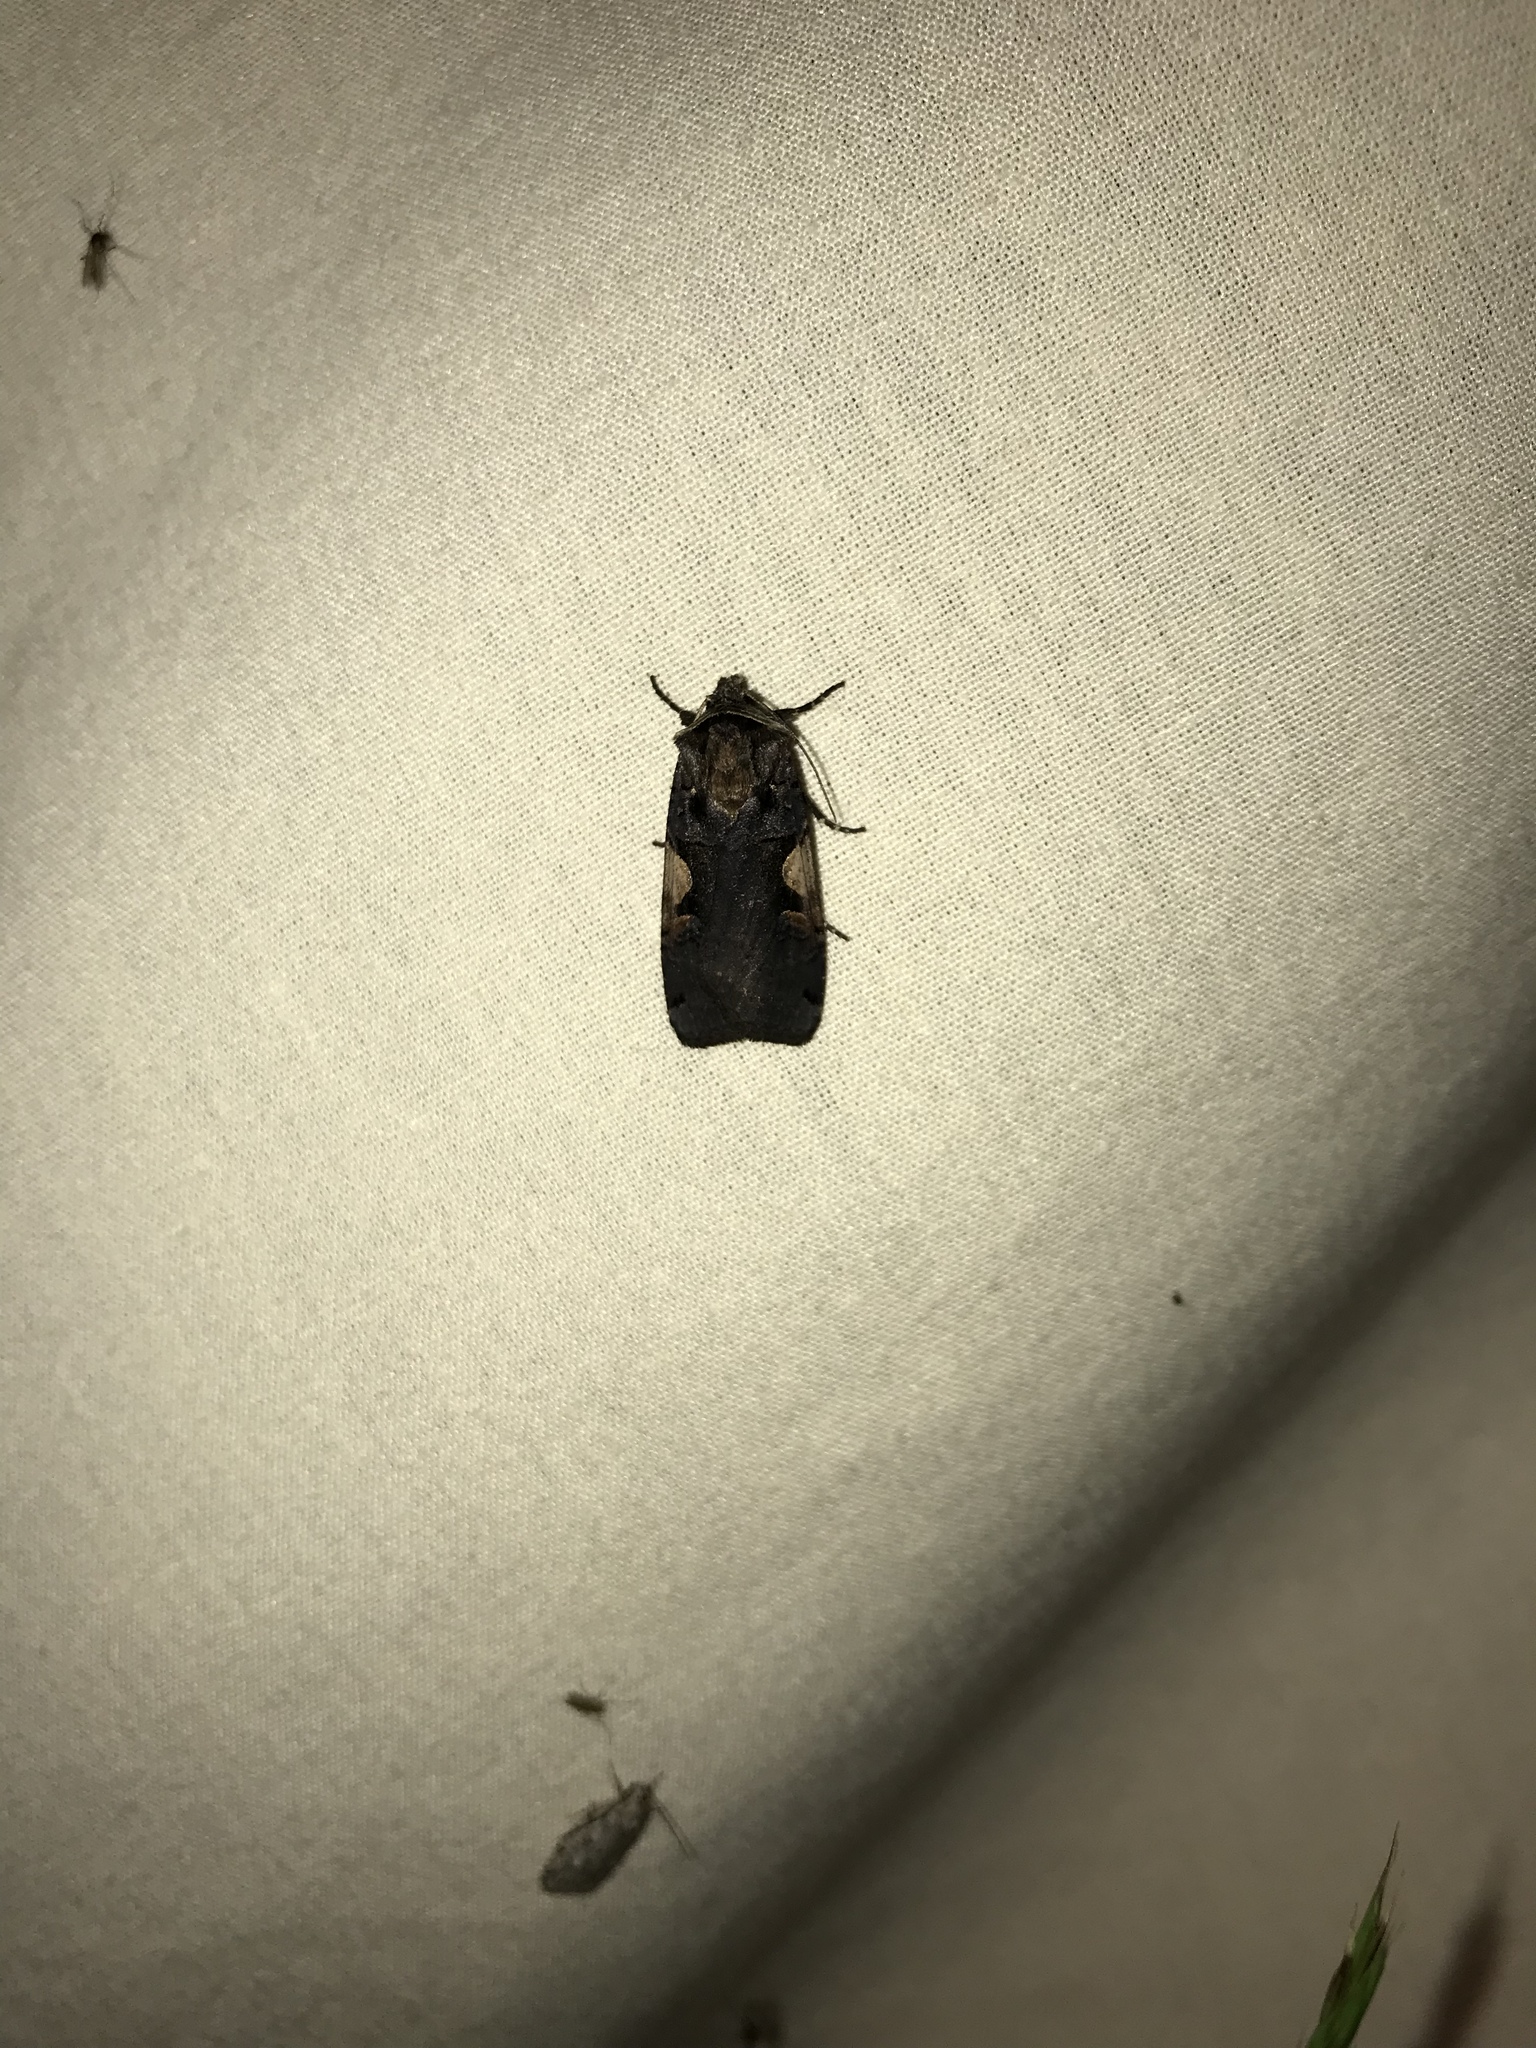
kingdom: Animalia
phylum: Arthropoda
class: Insecta
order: Lepidoptera
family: Noctuidae
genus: Xestia
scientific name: Xestia
